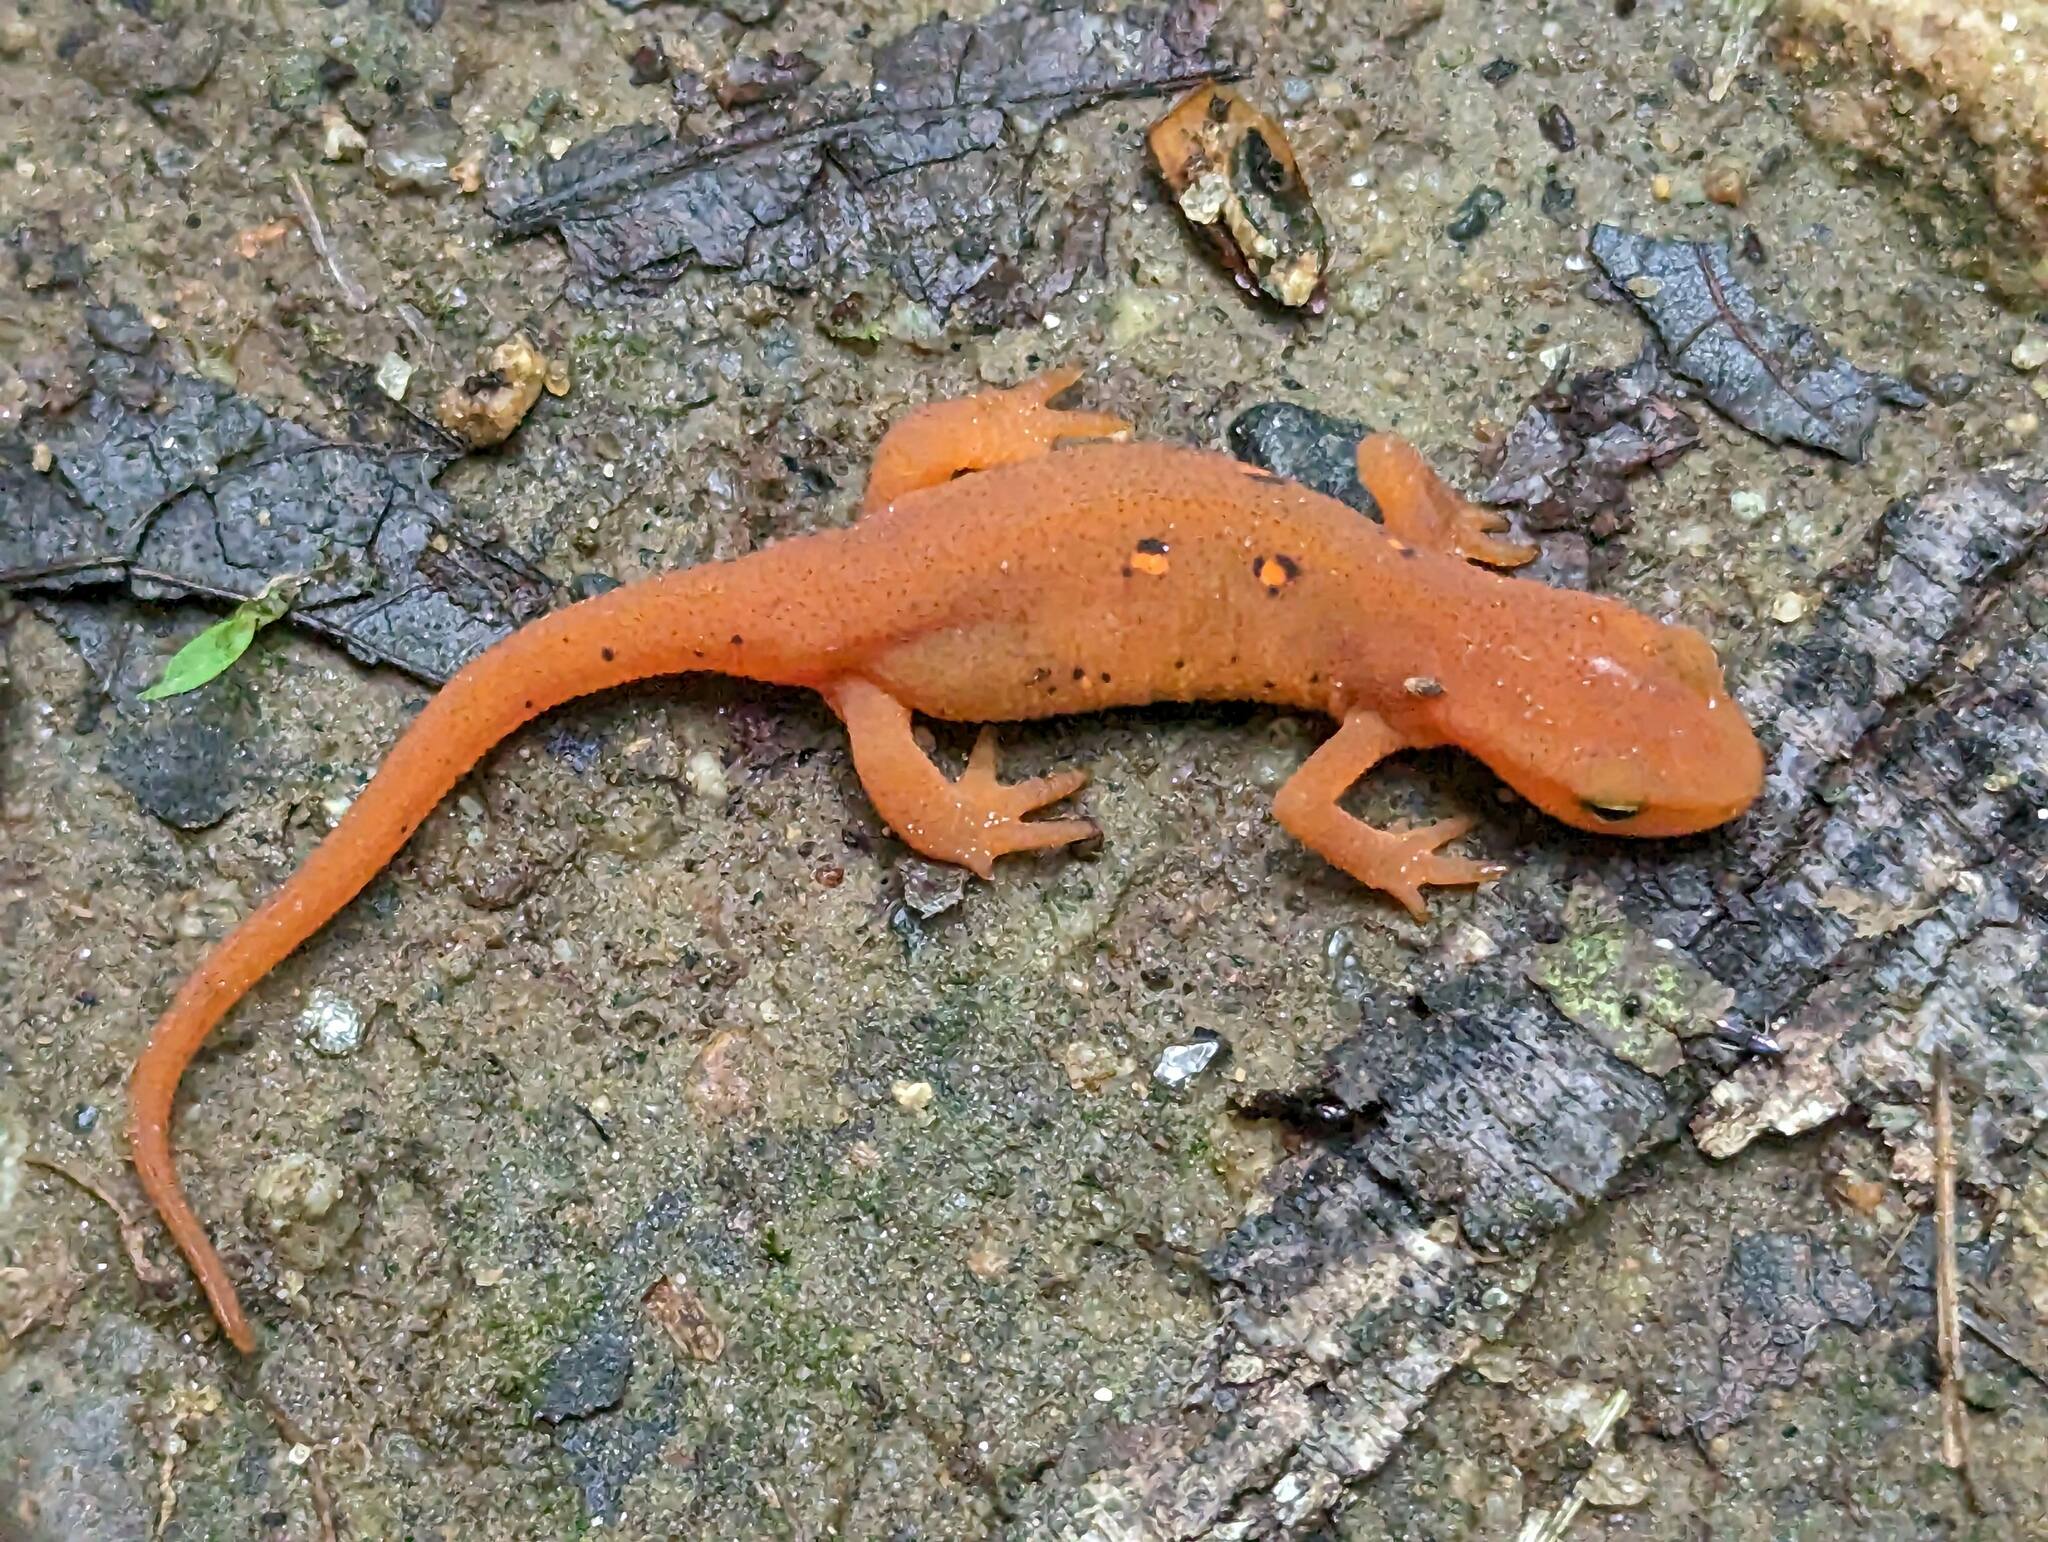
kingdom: Animalia
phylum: Chordata
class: Amphibia
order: Caudata
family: Salamandridae
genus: Notophthalmus
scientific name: Notophthalmus viridescens
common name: Eastern newt
